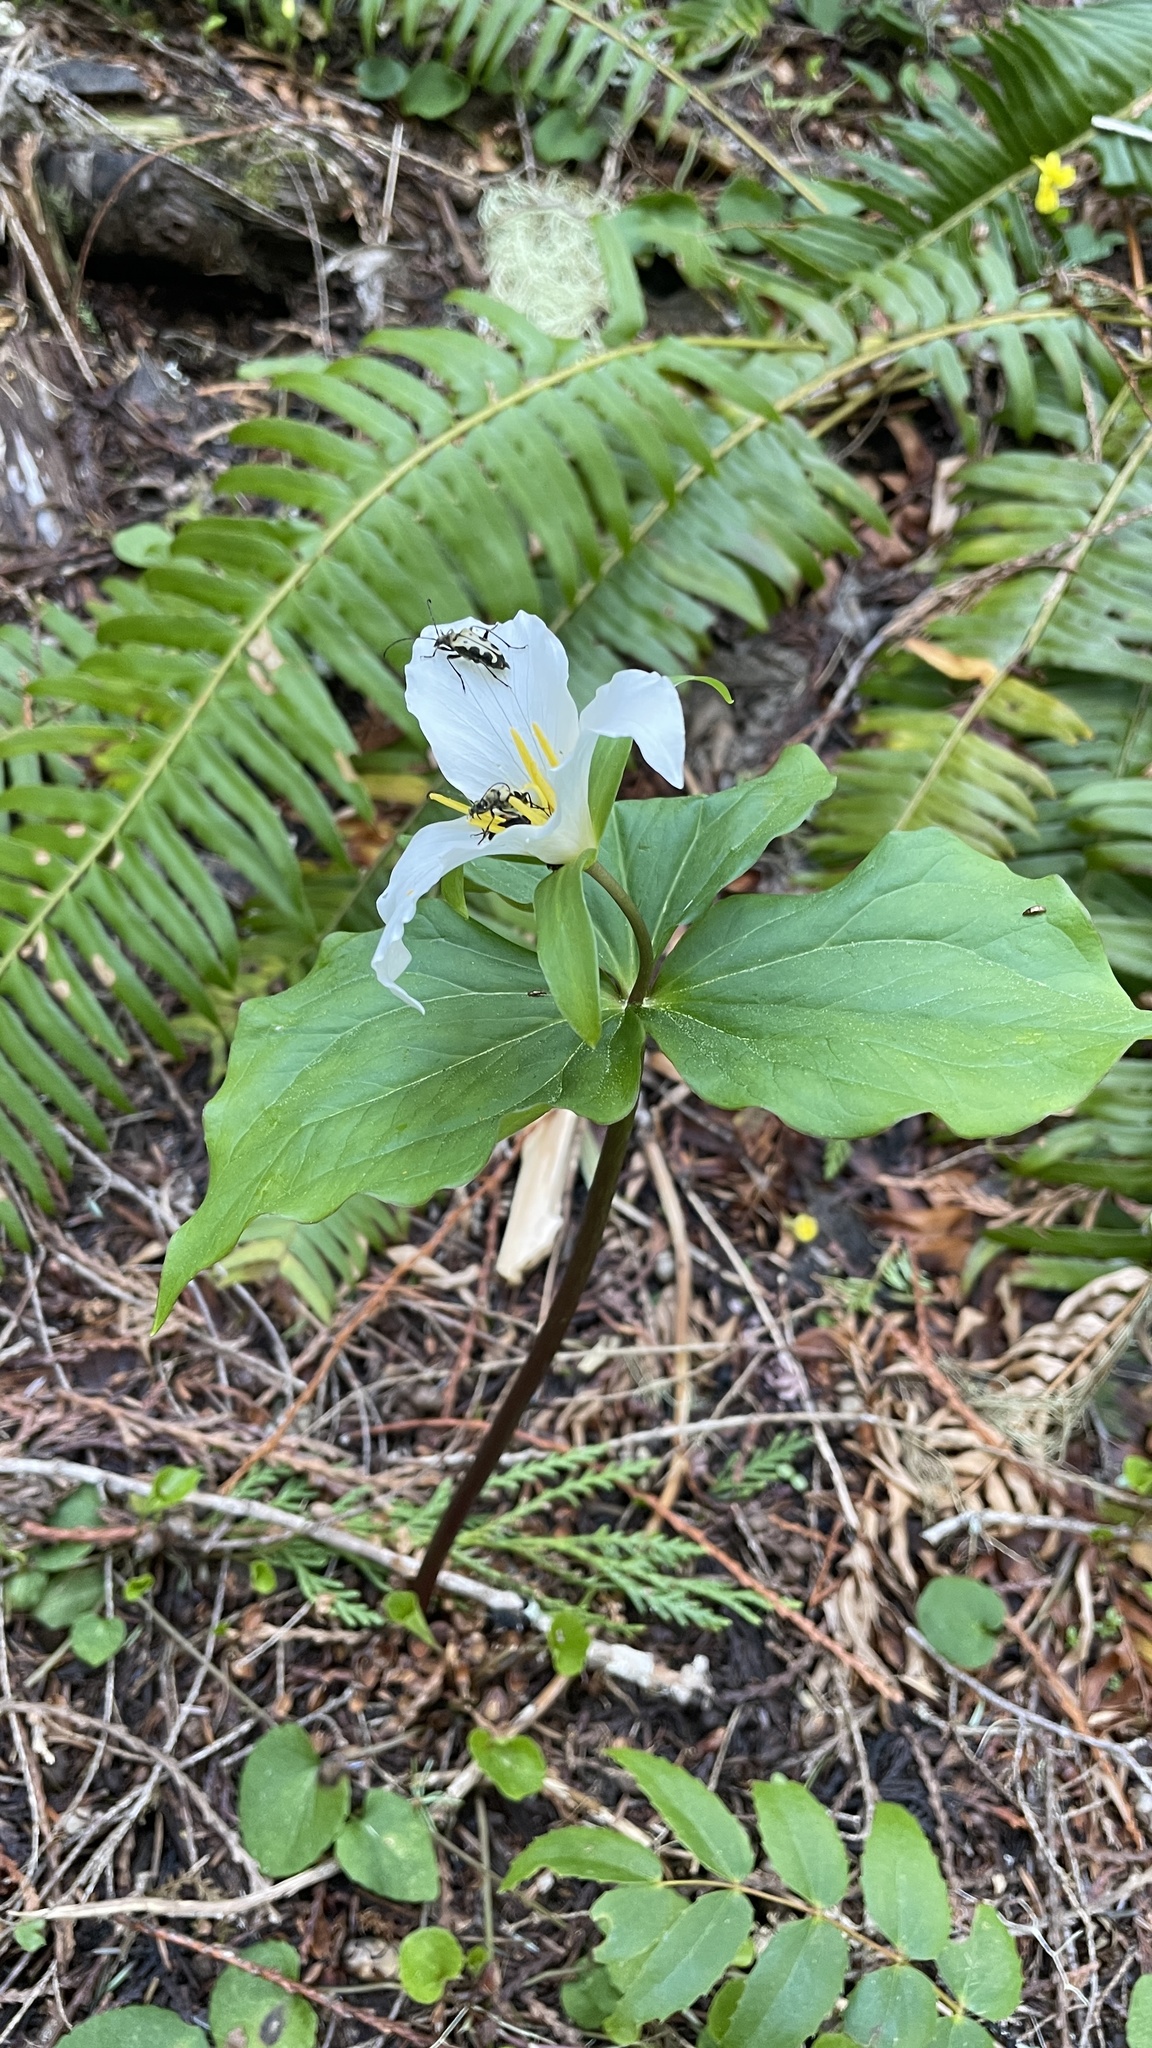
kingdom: Plantae
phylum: Tracheophyta
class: Liliopsida
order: Liliales
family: Melanthiaceae
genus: Trillium
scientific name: Trillium ovatum
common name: Pacific trillium
